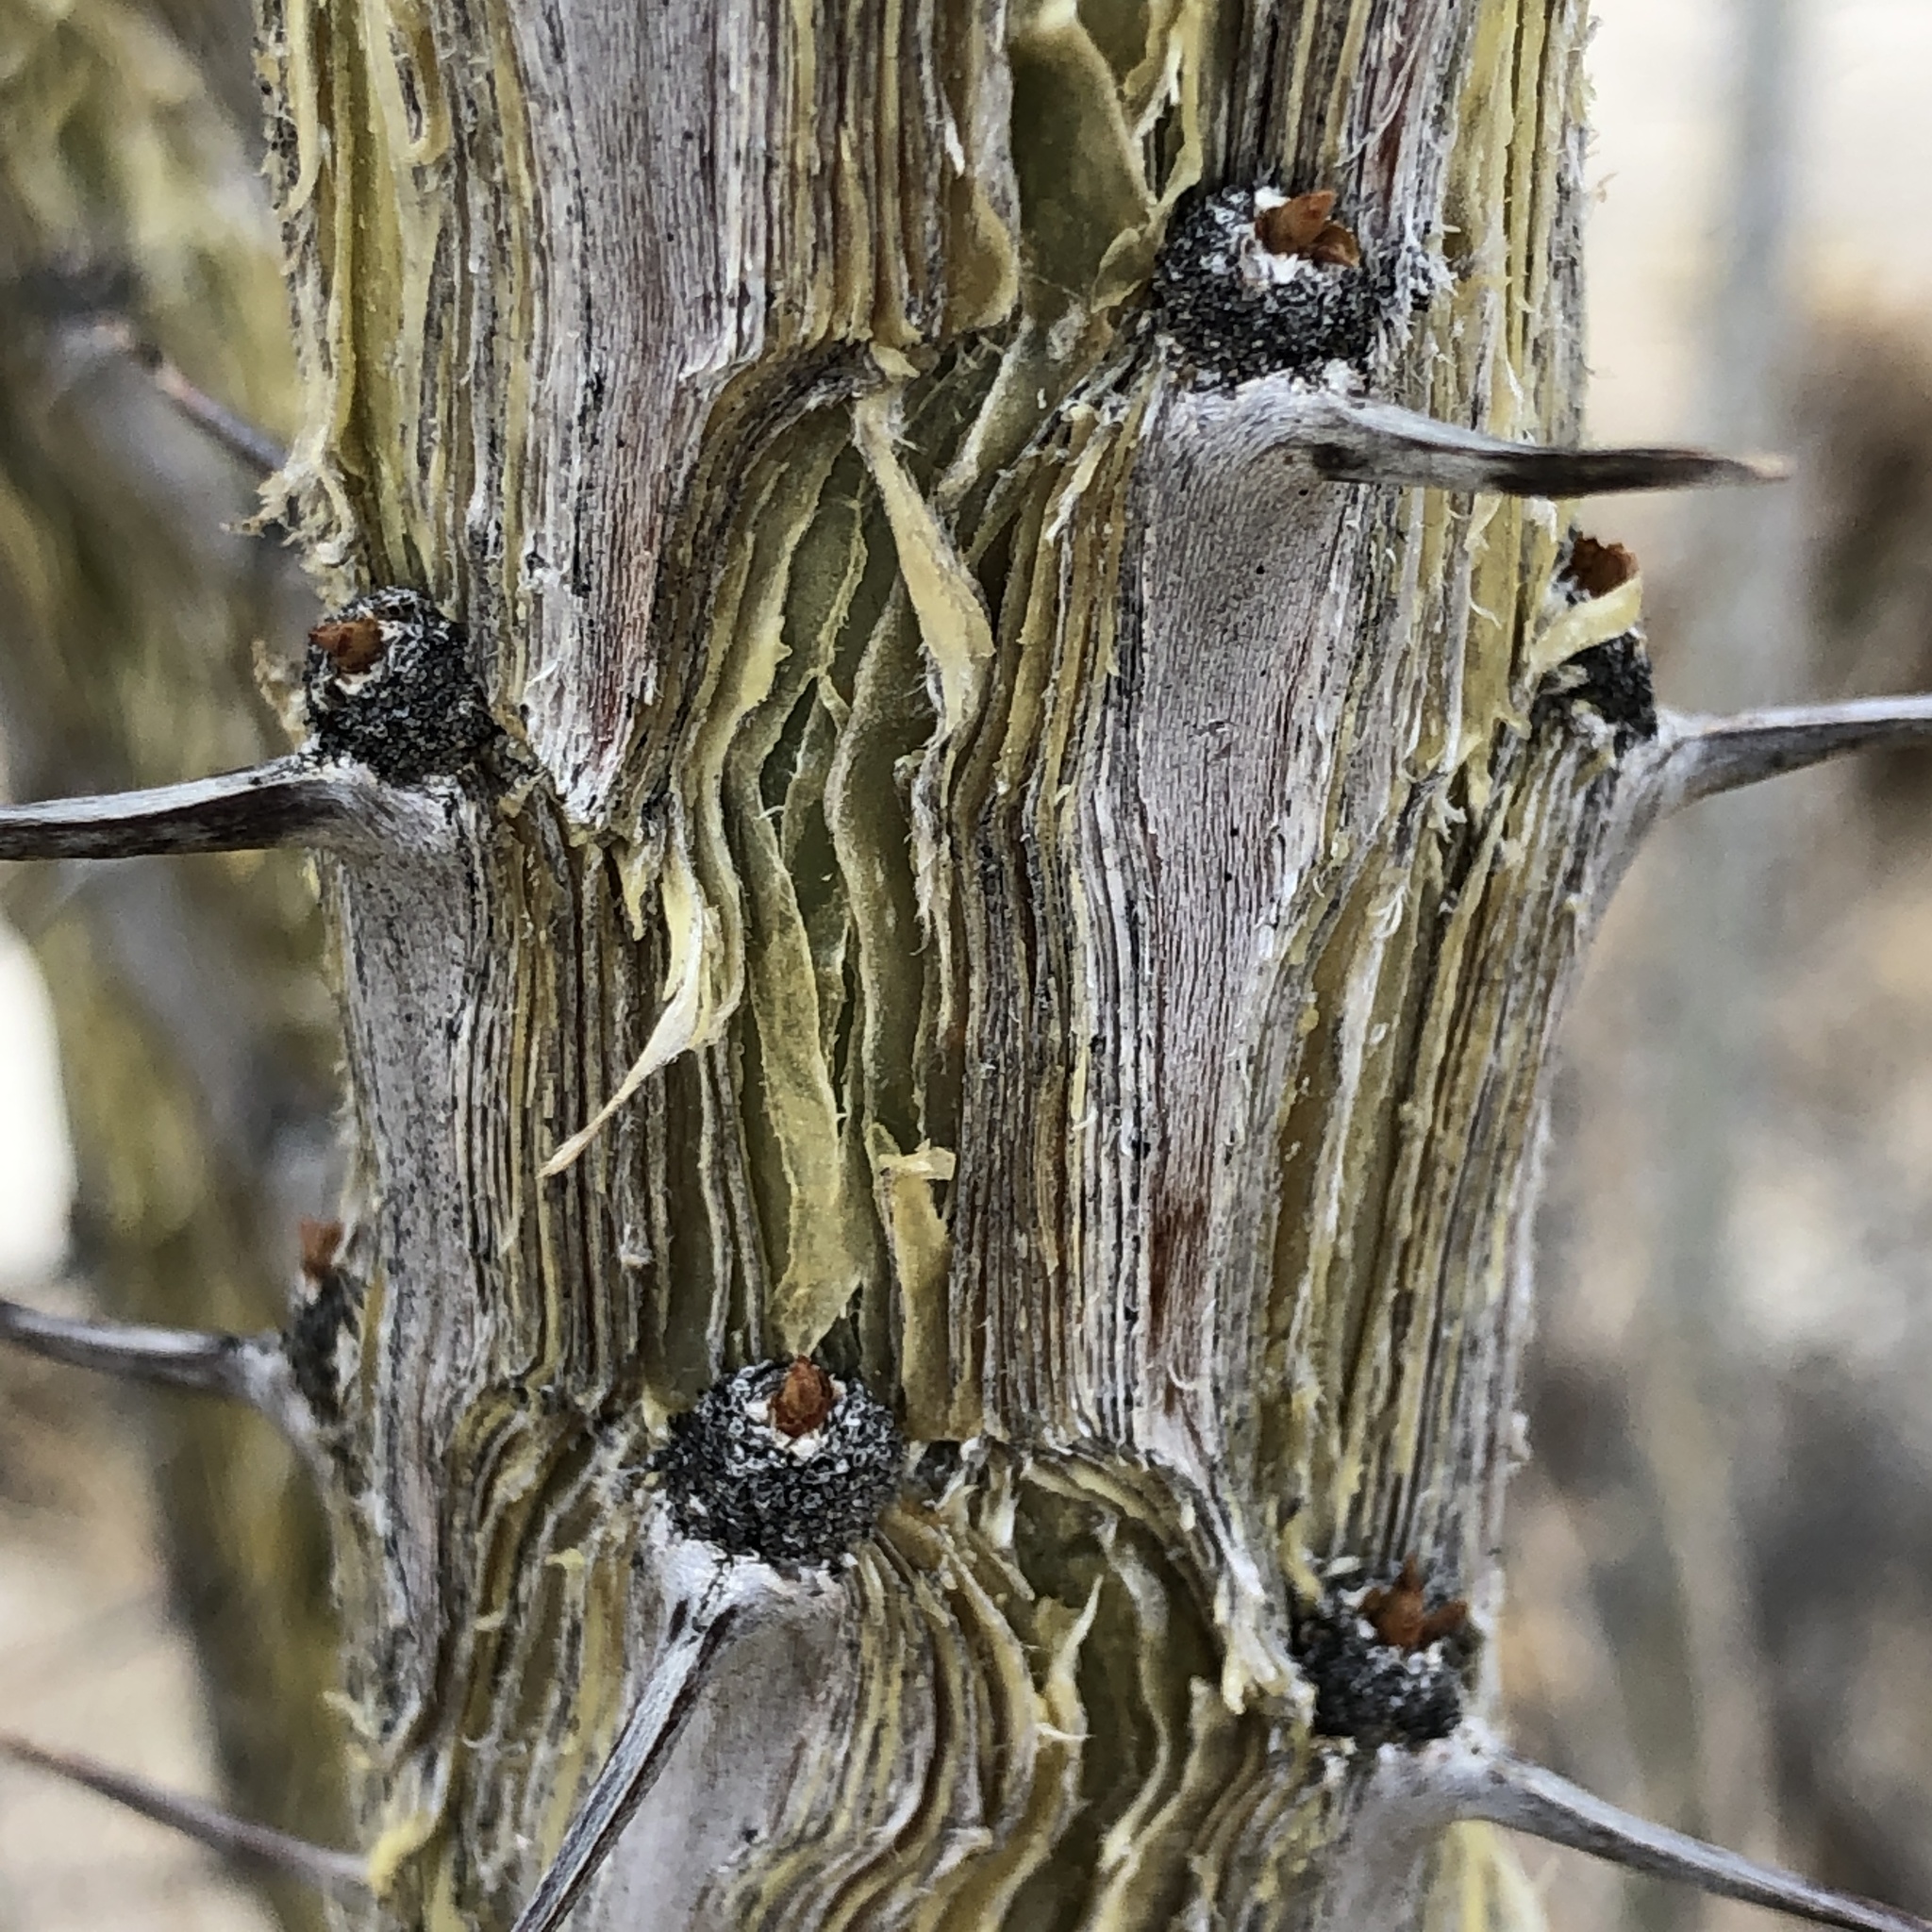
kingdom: Plantae
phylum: Tracheophyta
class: Magnoliopsida
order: Ericales
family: Fouquieriaceae
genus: Fouquieria
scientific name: Fouquieria splendens
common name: Vine-cactus
